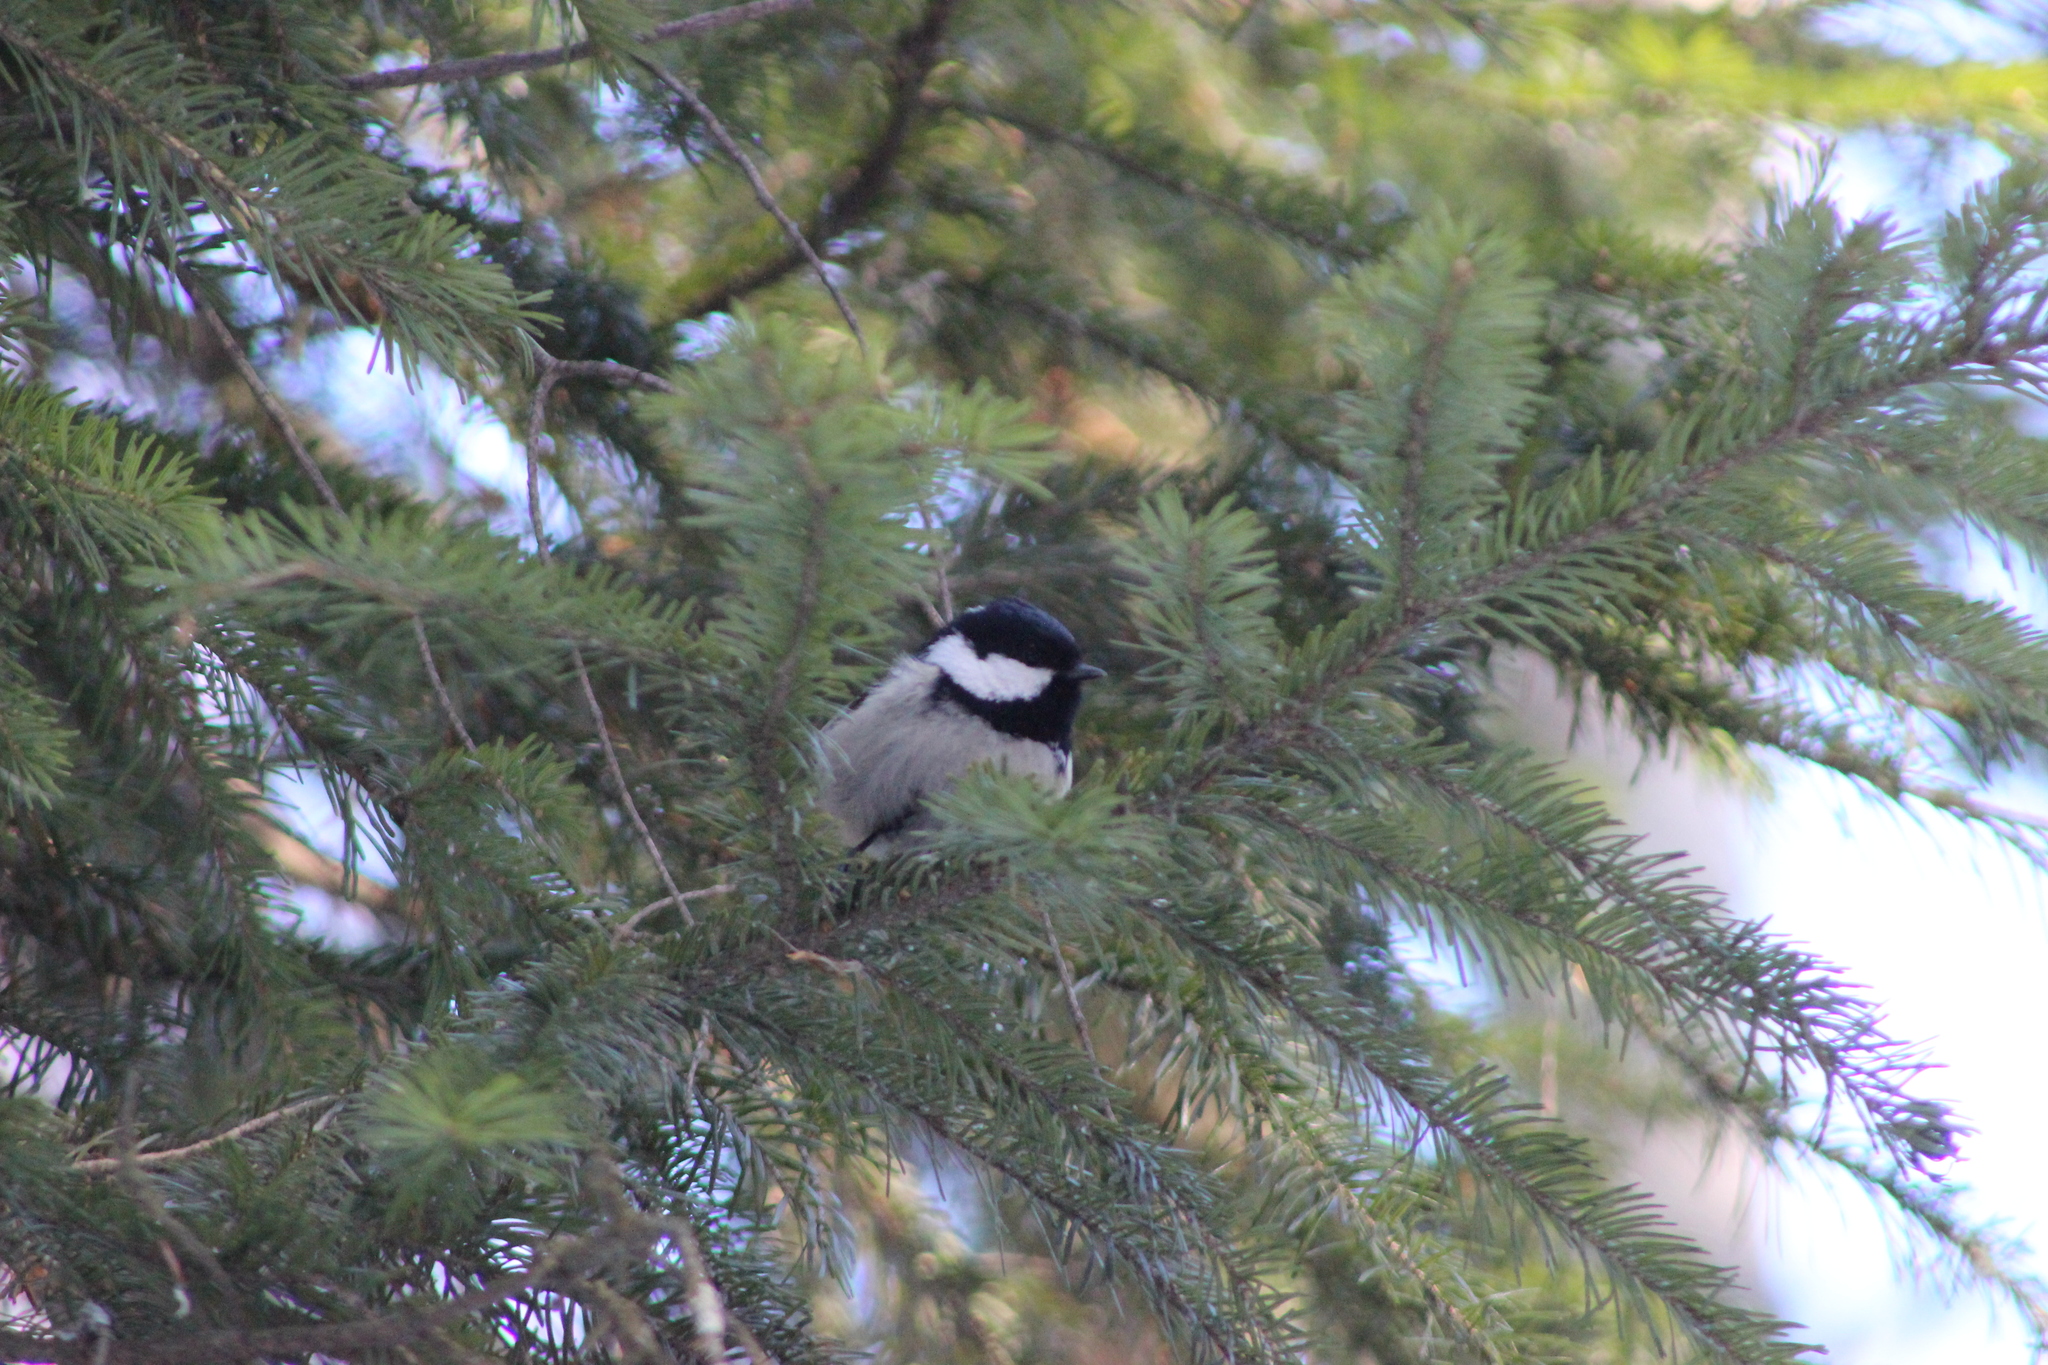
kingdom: Animalia
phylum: Chordata
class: Aves
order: Passeriformes
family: Paridae
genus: Periparus
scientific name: Periparus ater
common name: Coal tit
